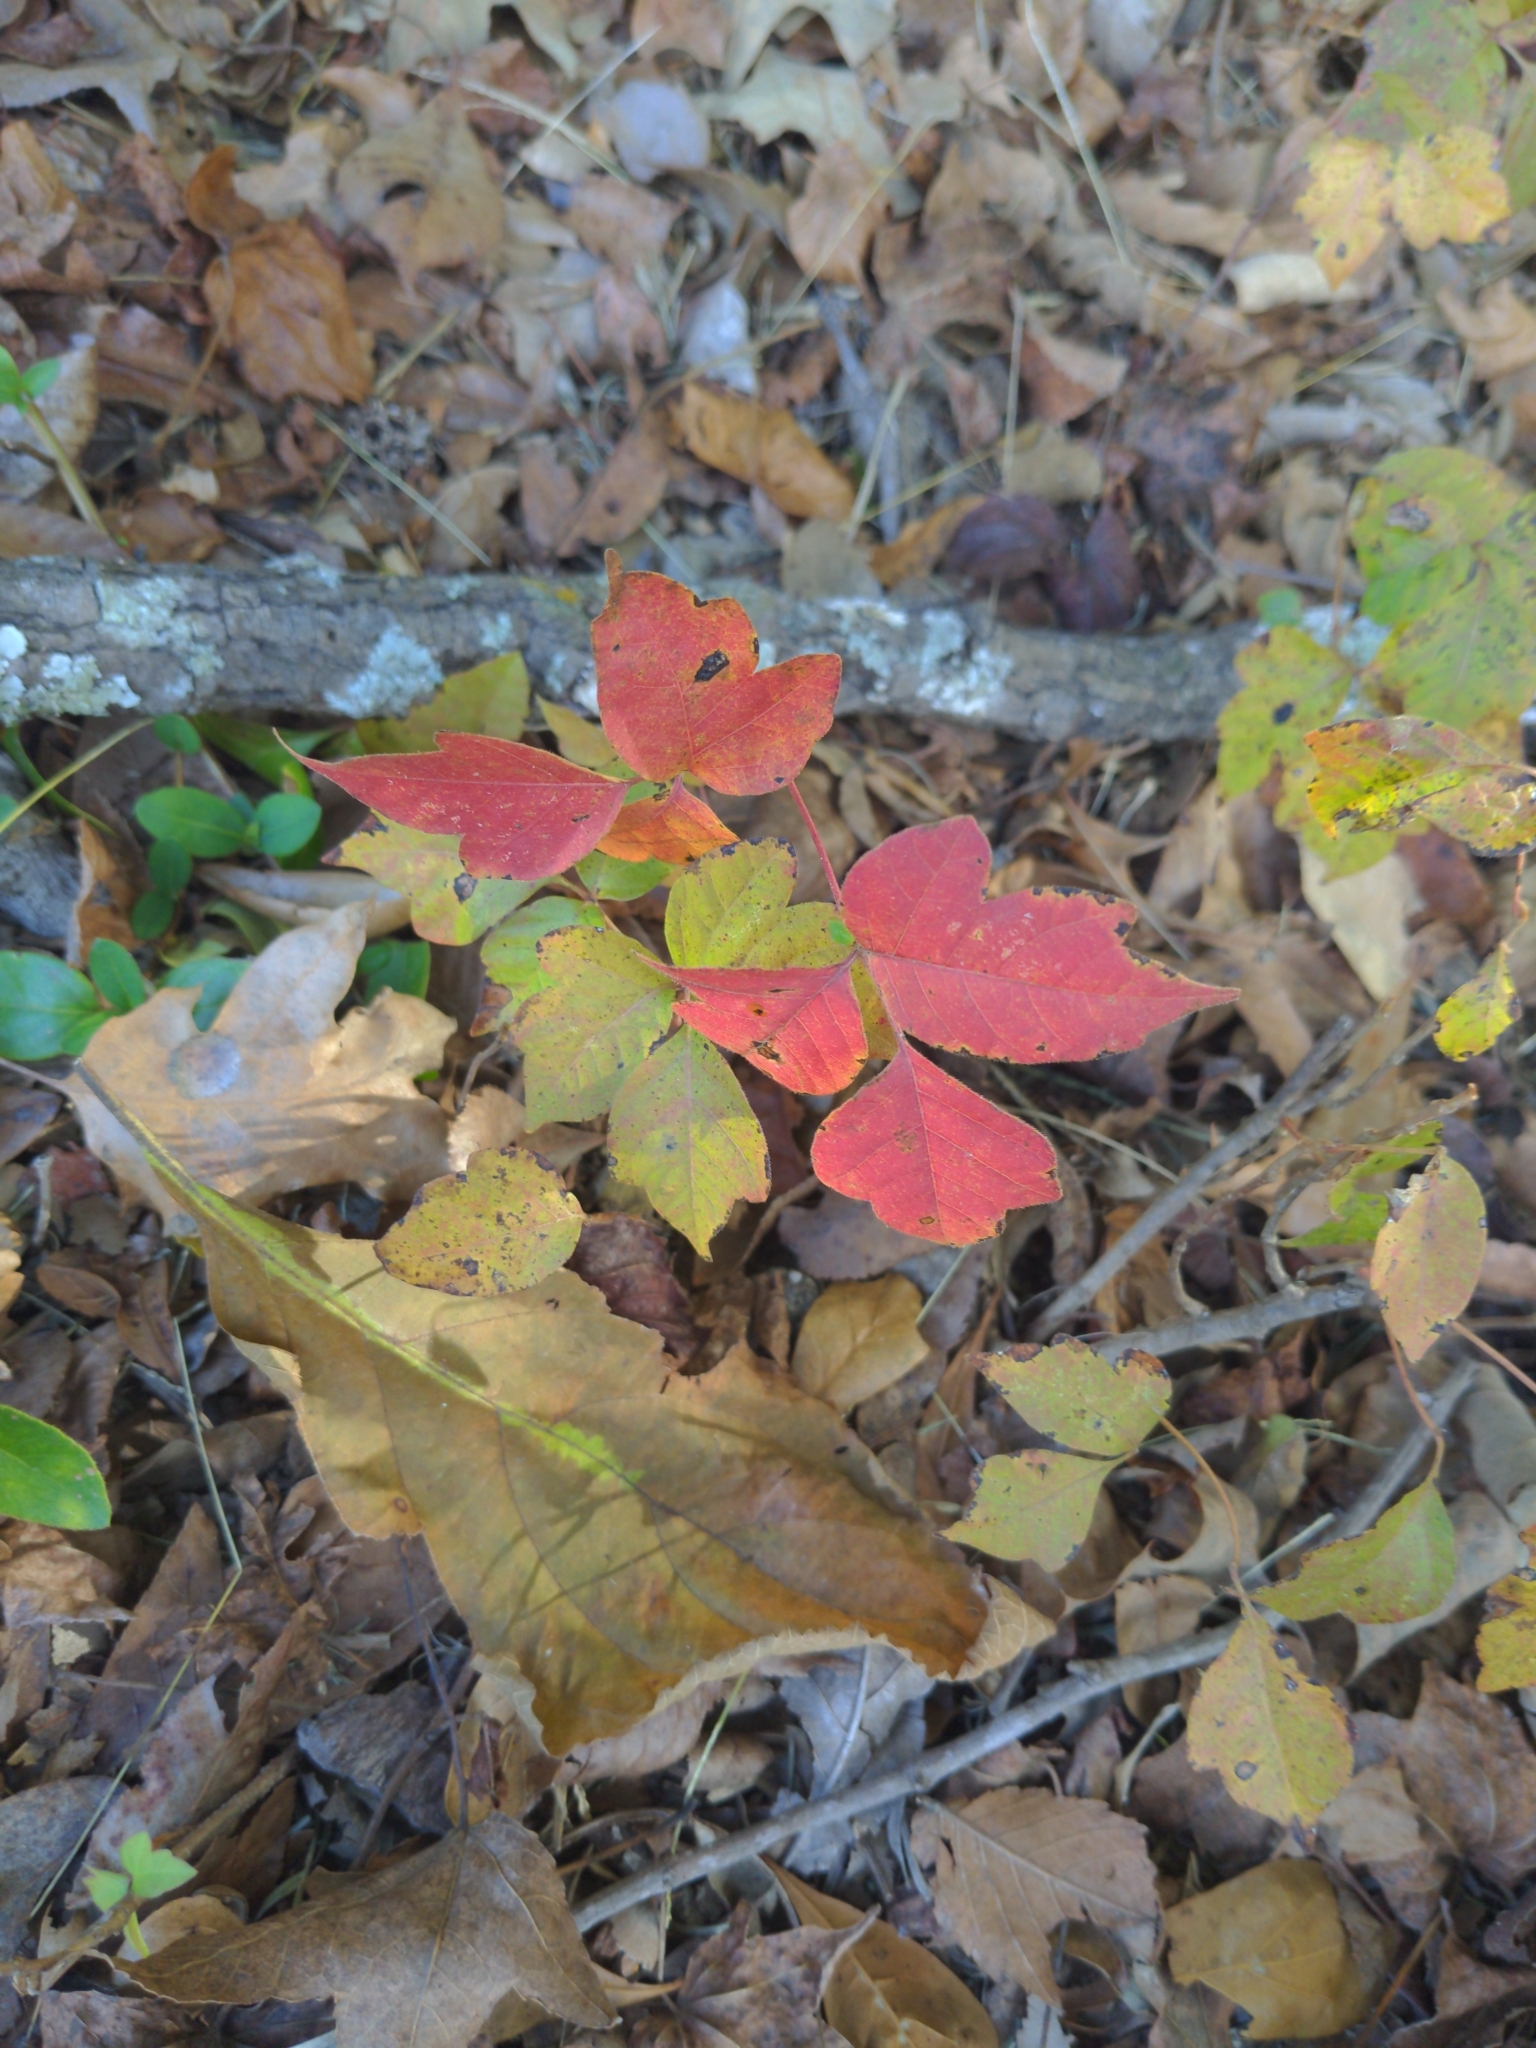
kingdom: Plantae
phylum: Tracheophyta
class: Magnoliopsida
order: Sapindales
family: Anacardiaceae
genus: Toxicodendron
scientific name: Toxicodendron radicans
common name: Poison ivy
